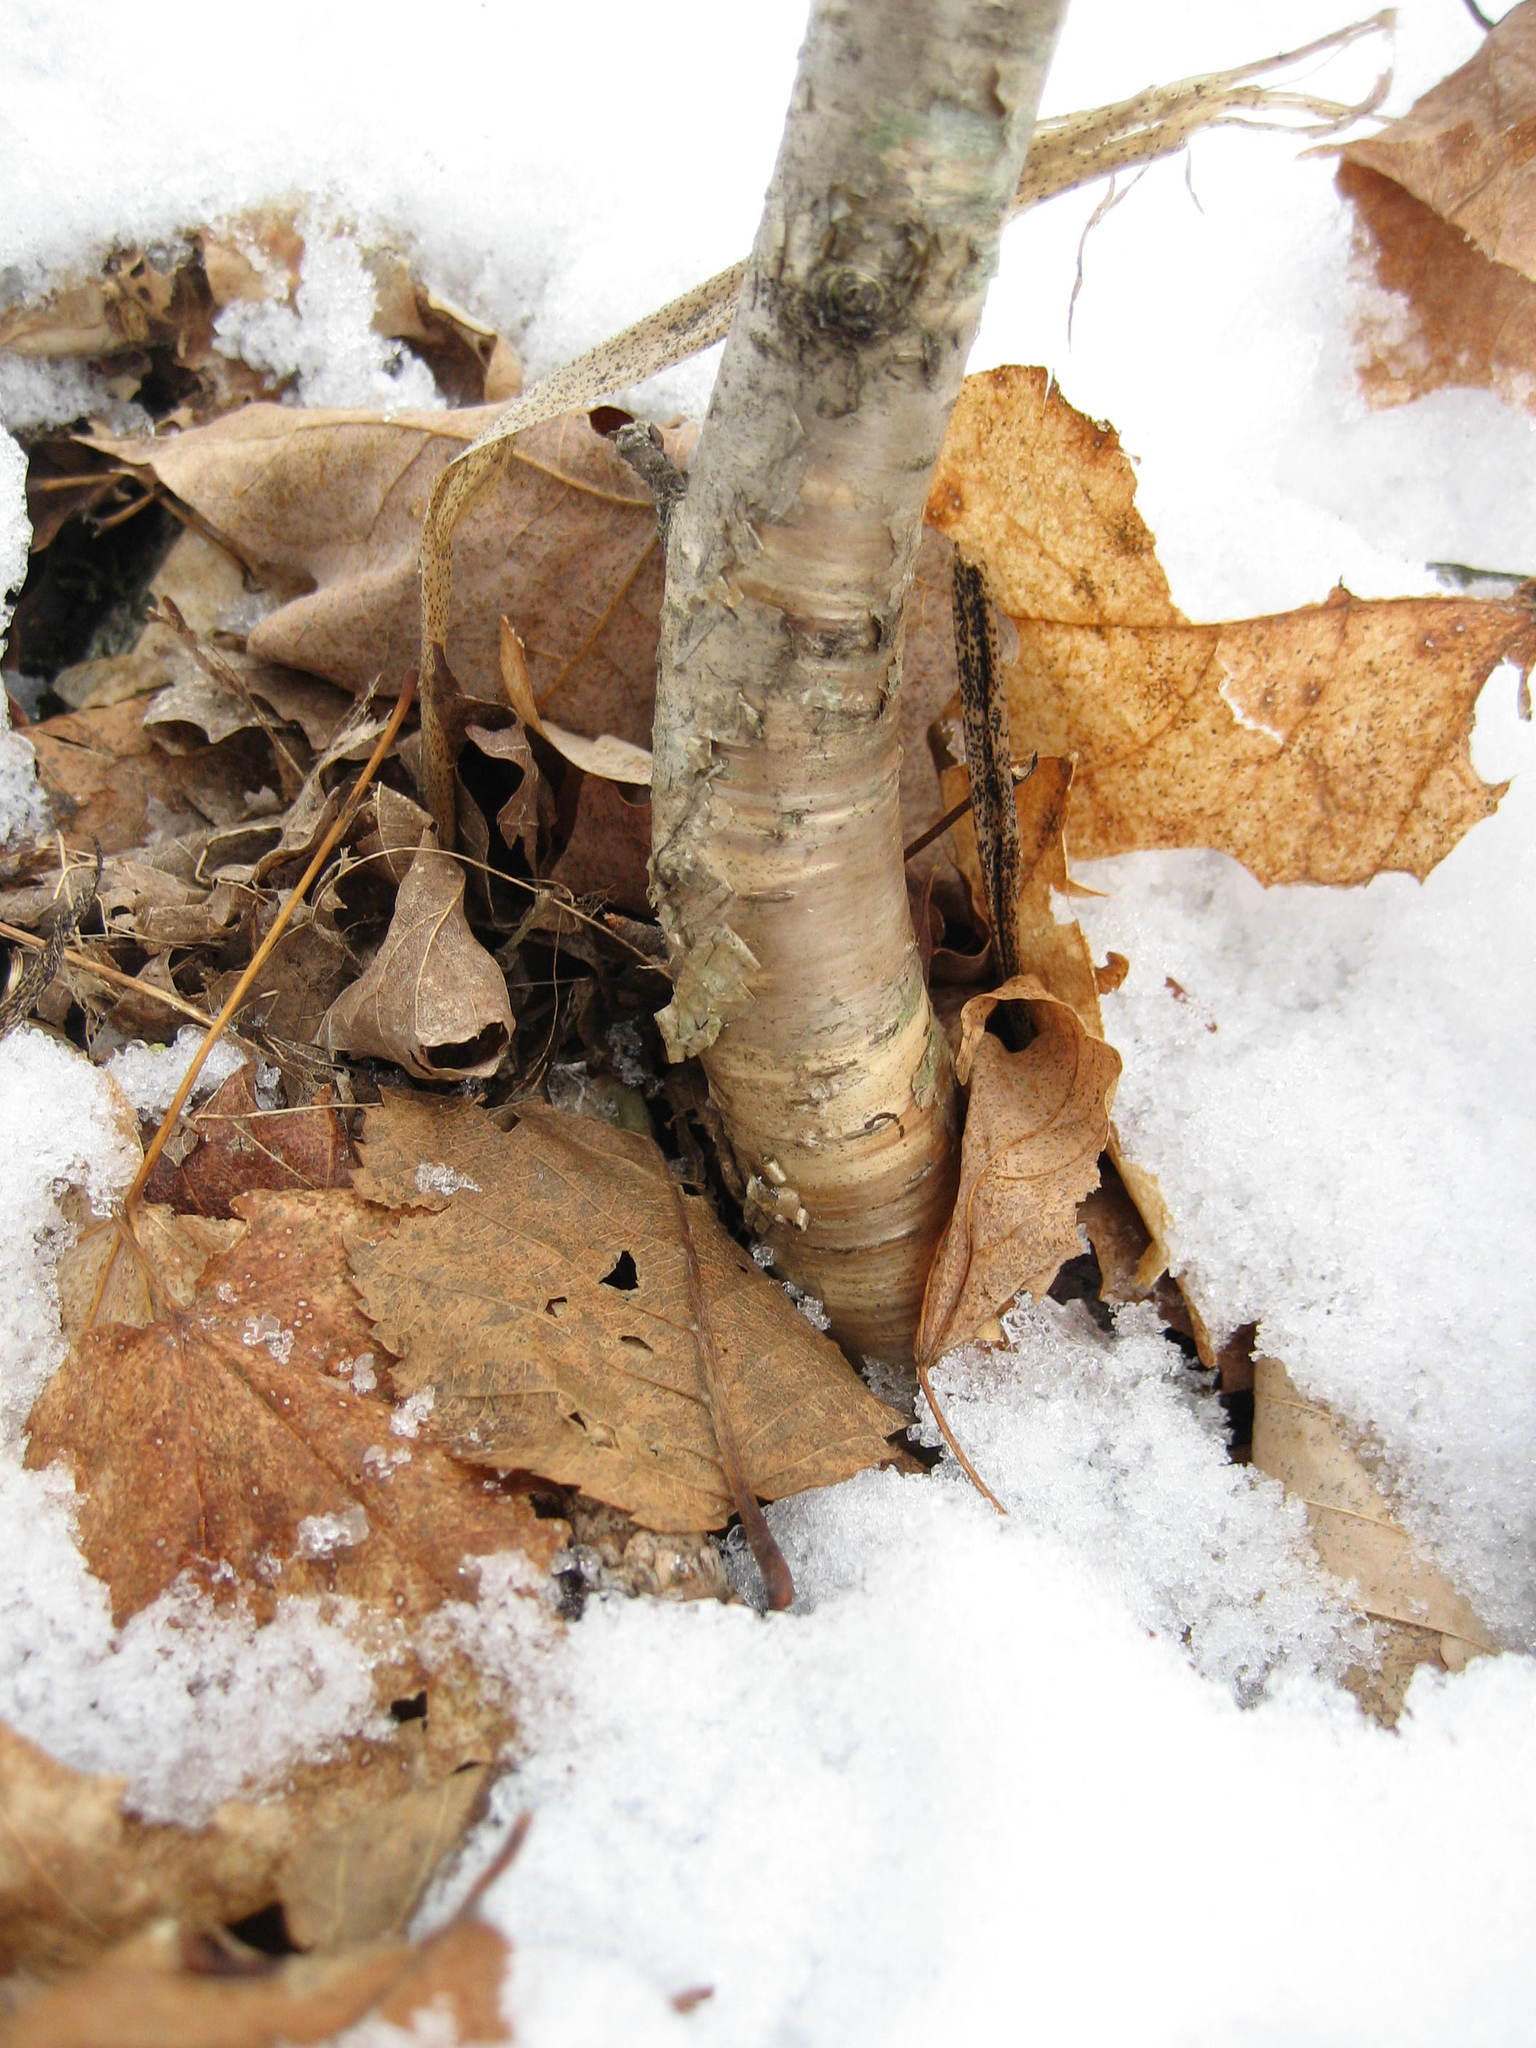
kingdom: Plantae
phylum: Tracheophyta
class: Magnoliopsida
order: Fagales
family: Betulaceae
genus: Betula
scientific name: Betula alleghaniensis
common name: Yellow birch
